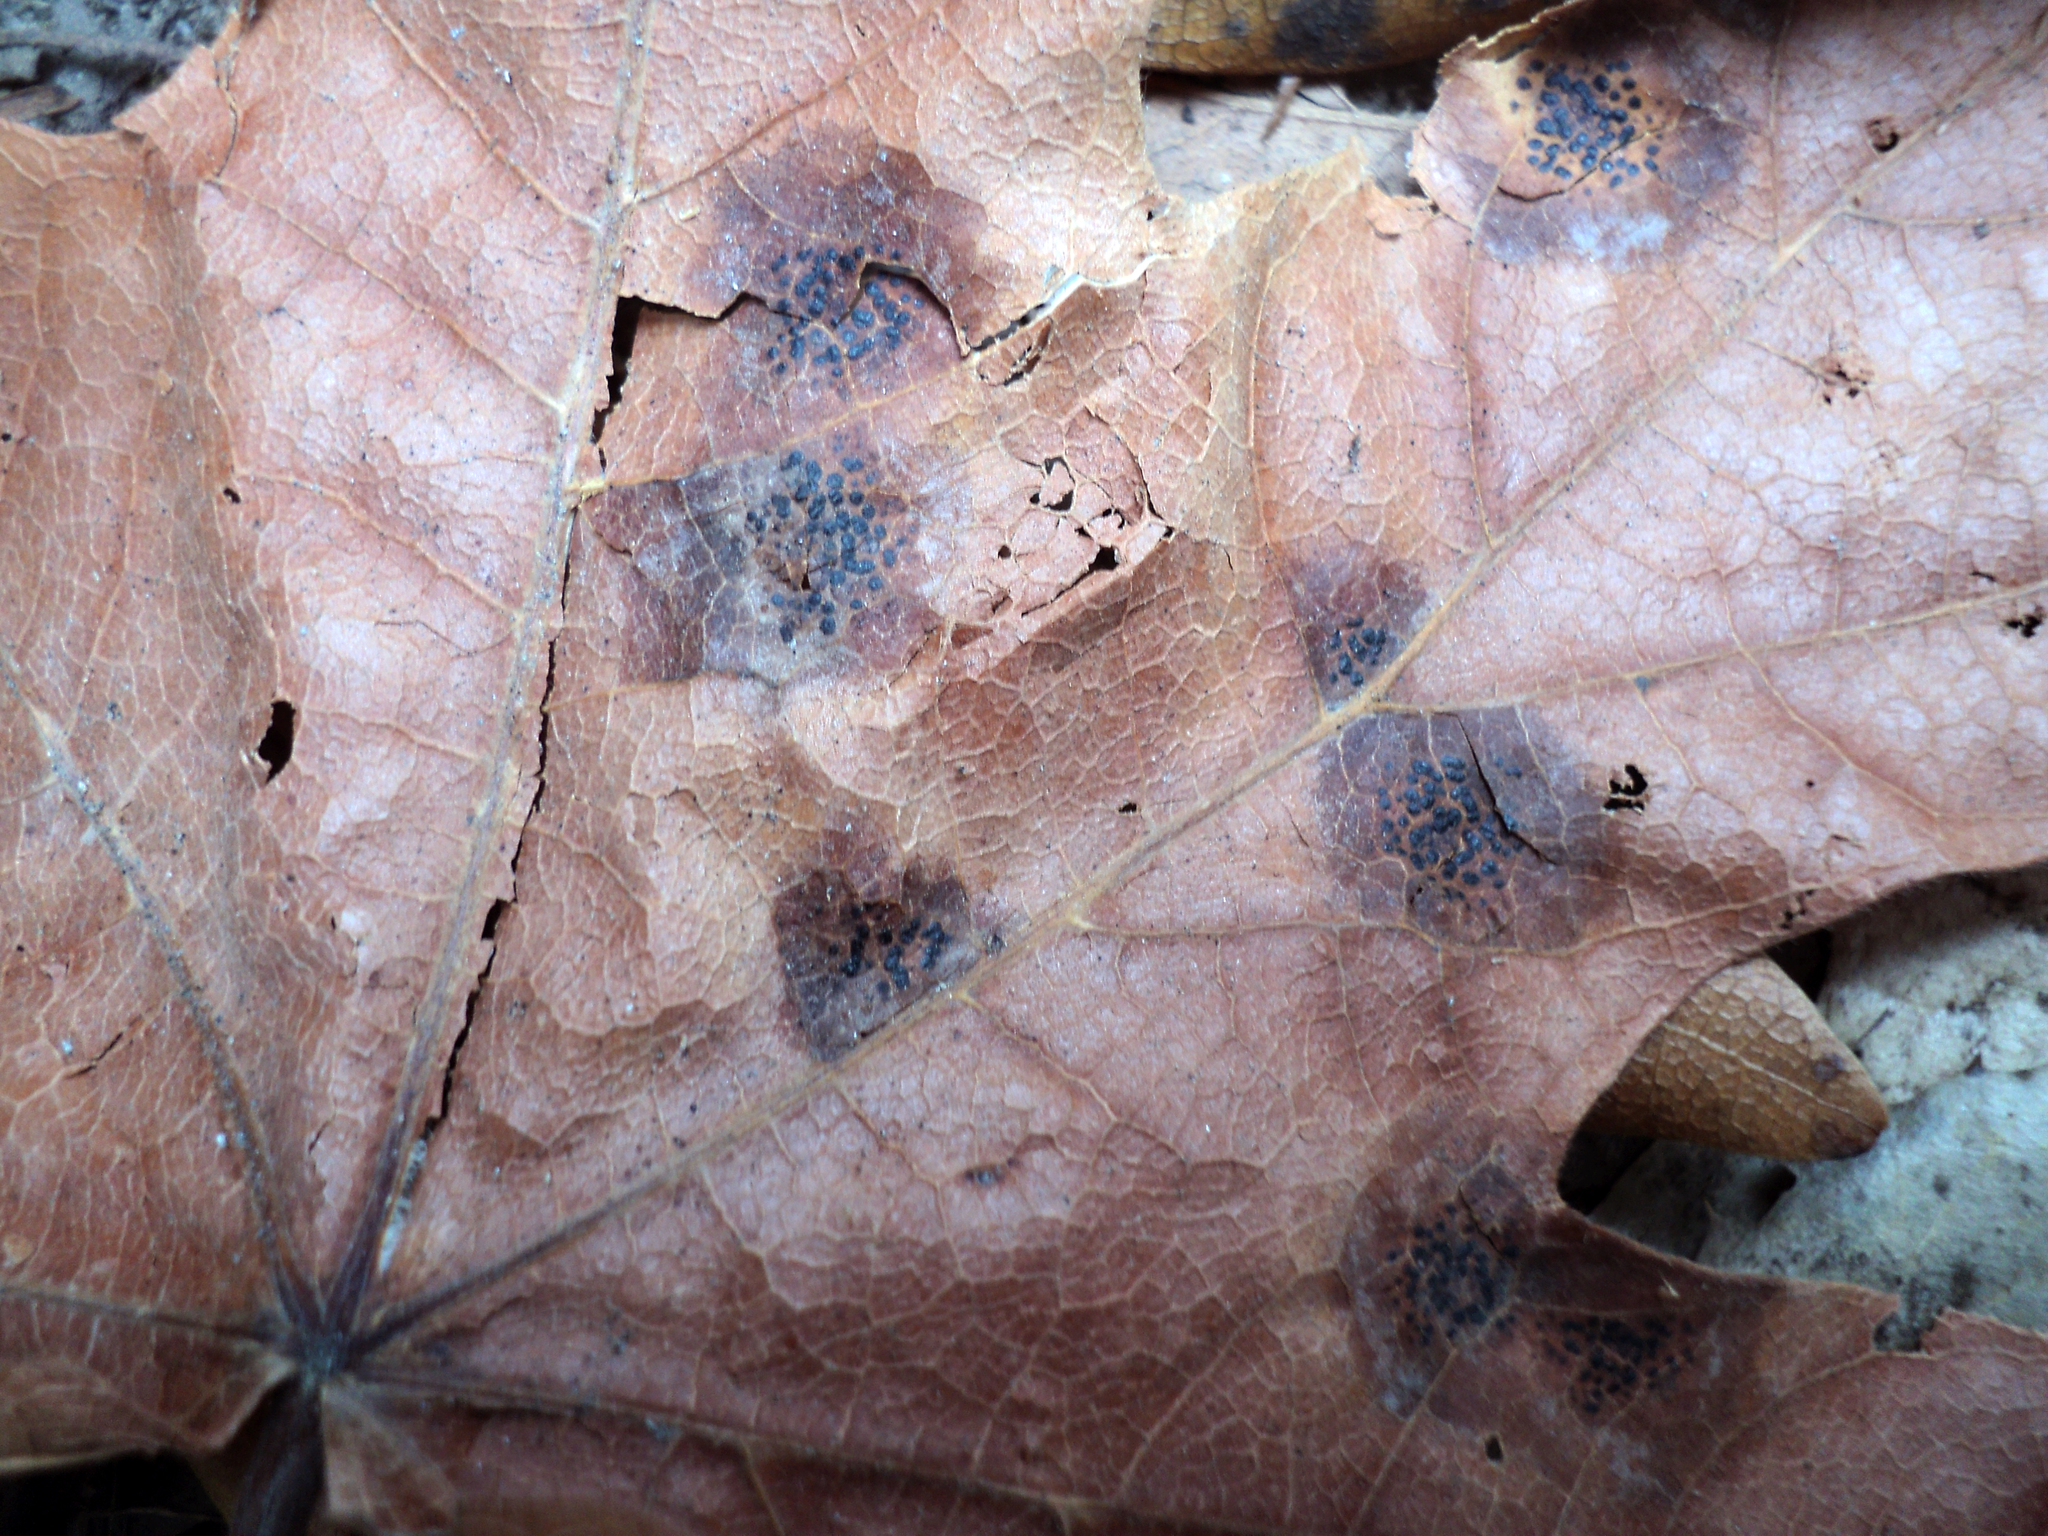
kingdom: Fungi
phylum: Ascomycota
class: Leotiomycetes
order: Rhytismatales
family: Rhytismataceae
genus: Rhytisma
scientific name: Rhytisma punctatum
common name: Speckled tar spot
